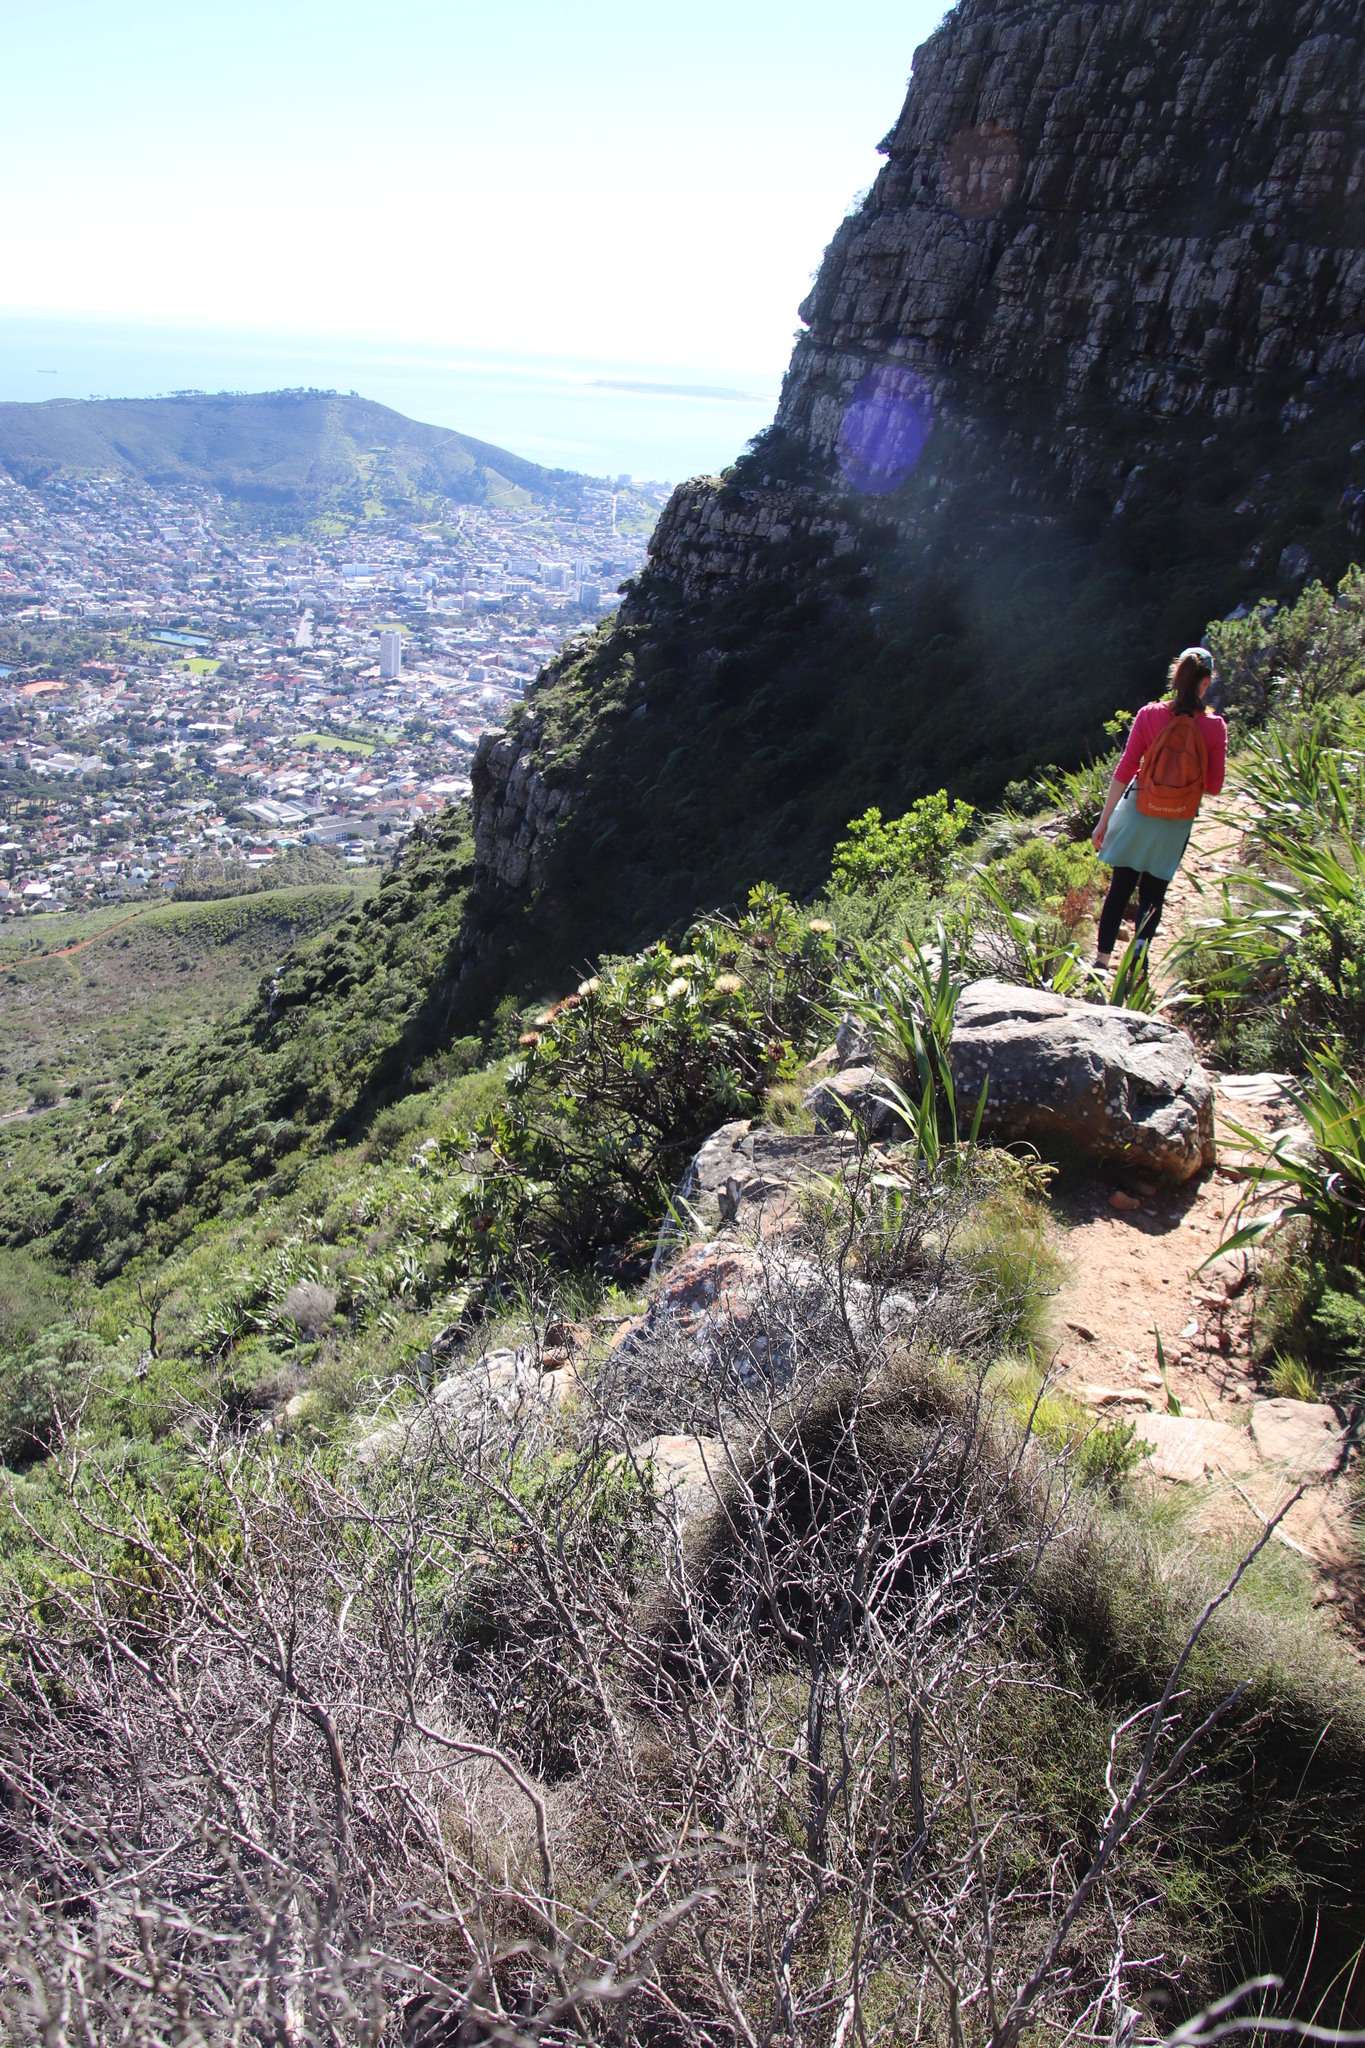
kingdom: Plantae
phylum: Tracheophyta
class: Magnoliopsida
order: Proteales
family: Proteaceae
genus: Protea
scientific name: Protea nitida
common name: Tree protea
